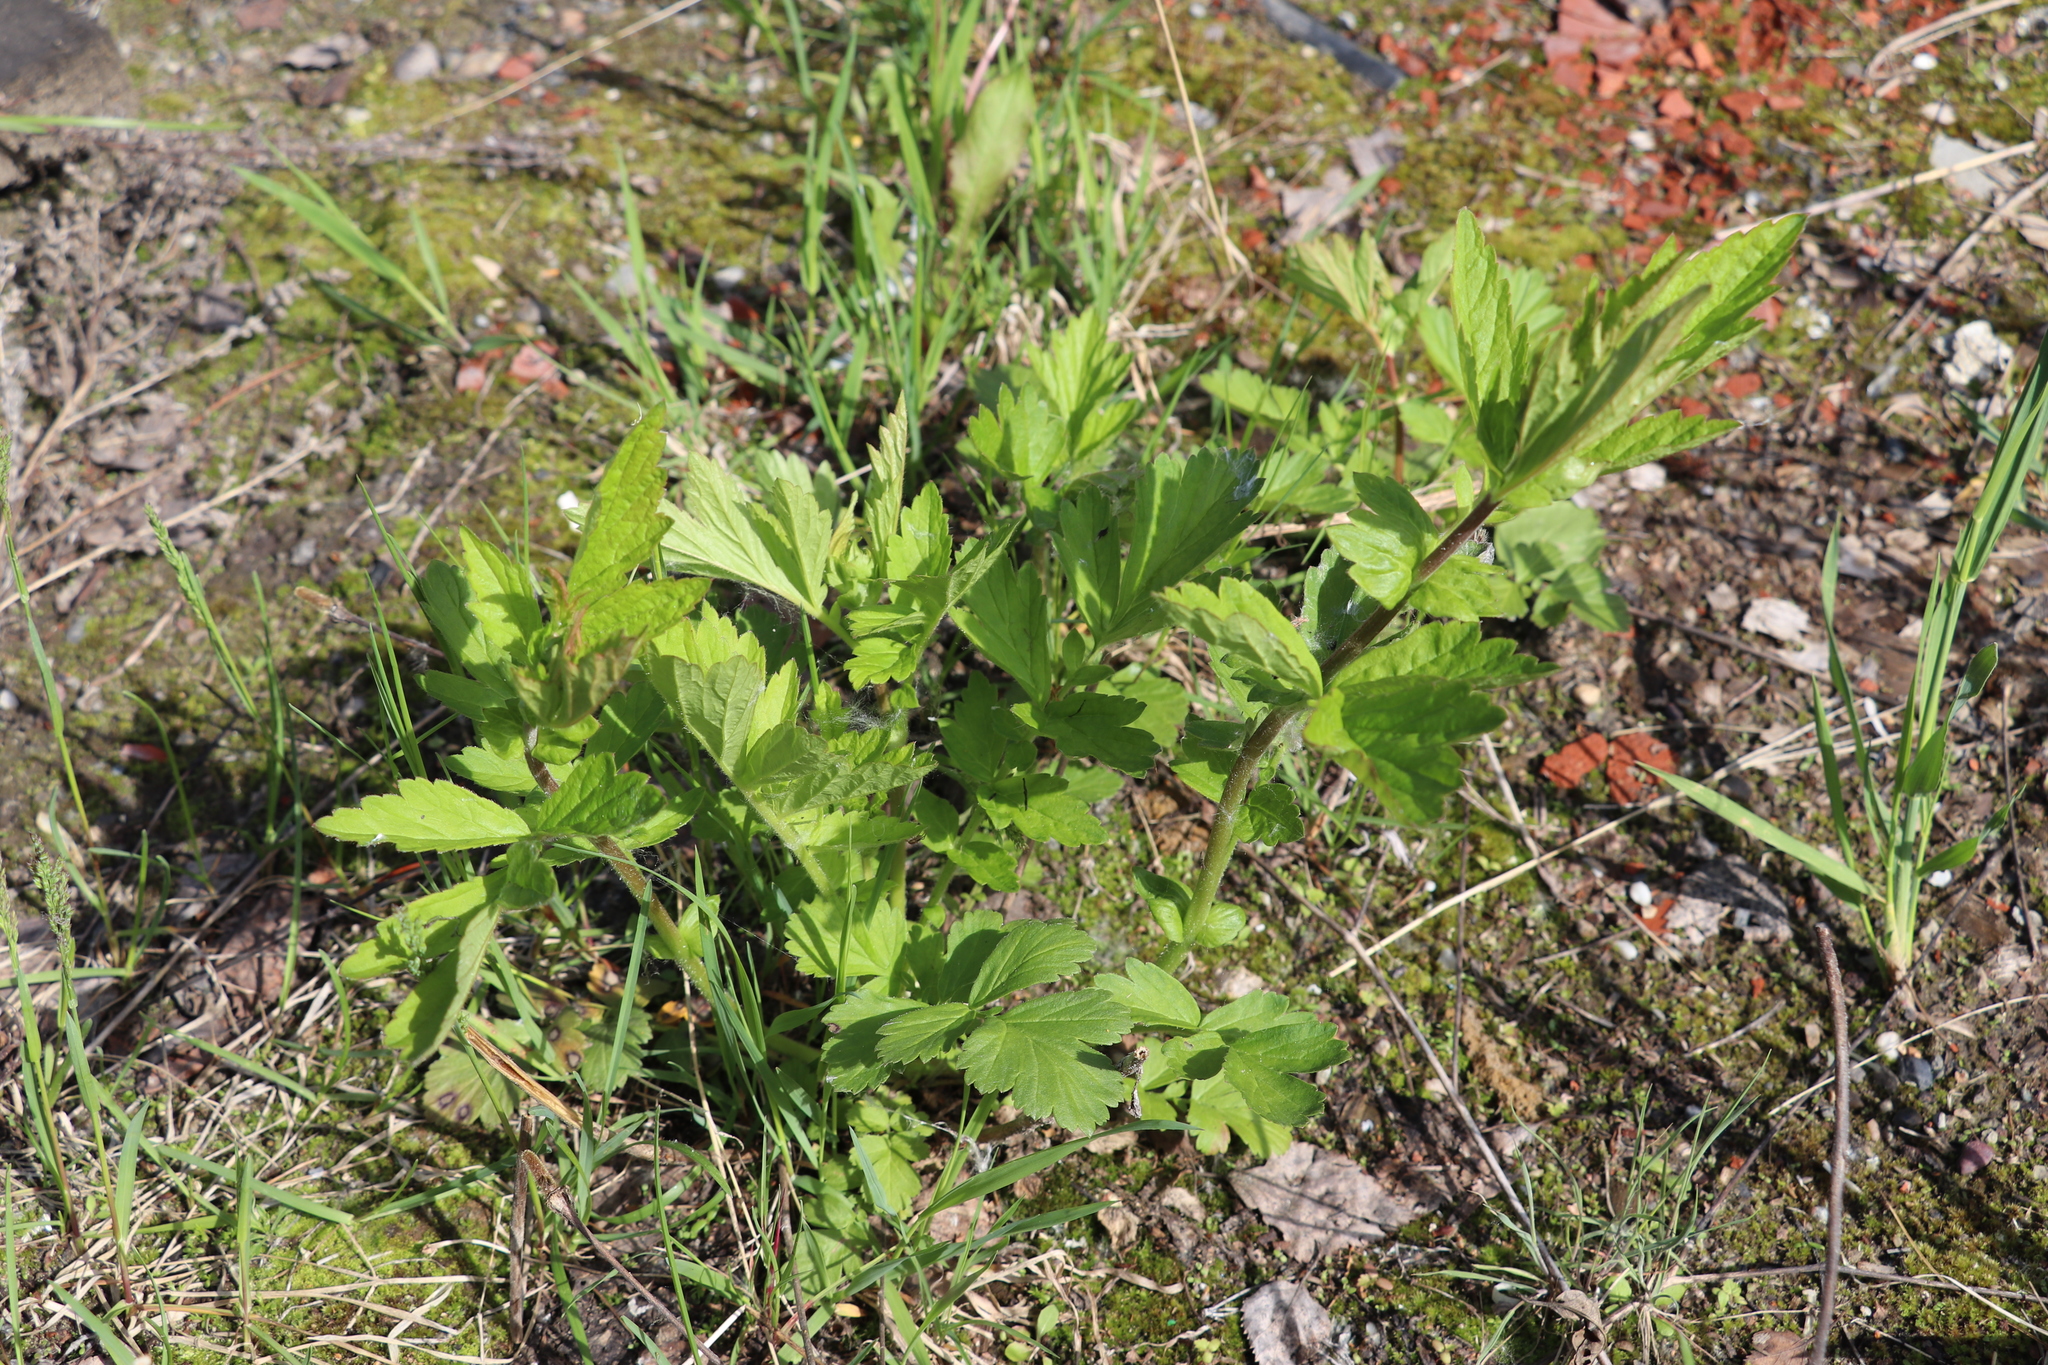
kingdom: Plantae
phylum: Tracheophyta
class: Magnoliopsida
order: Rosales
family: Rosaceae
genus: Geum
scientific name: Geum aleppicum
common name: Yellow avens
